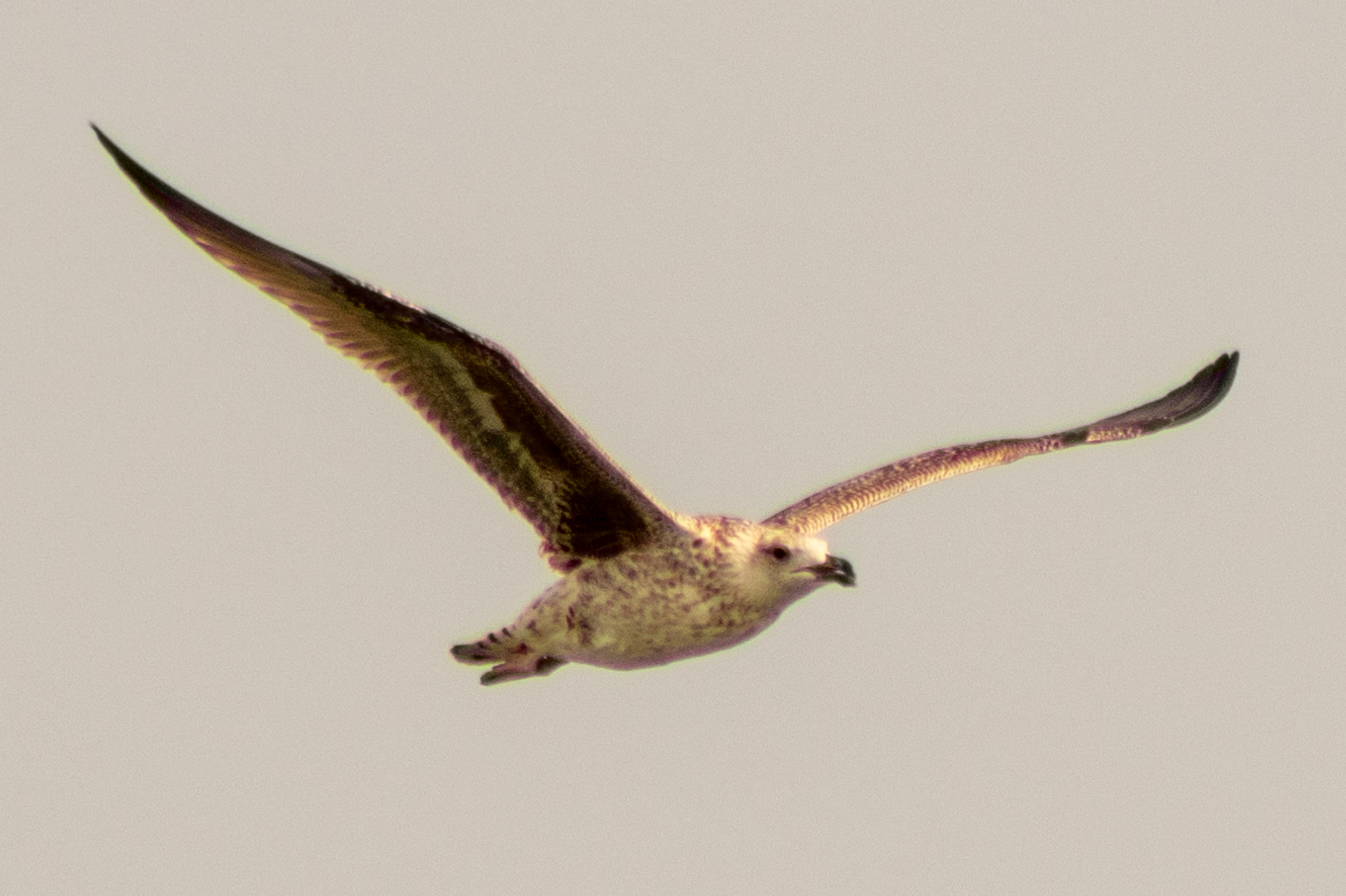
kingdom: Animalia
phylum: Chordata
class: Aves
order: Charadriiformes
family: Laridae
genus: Larus
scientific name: Larus marinus
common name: Great black-backed gull
